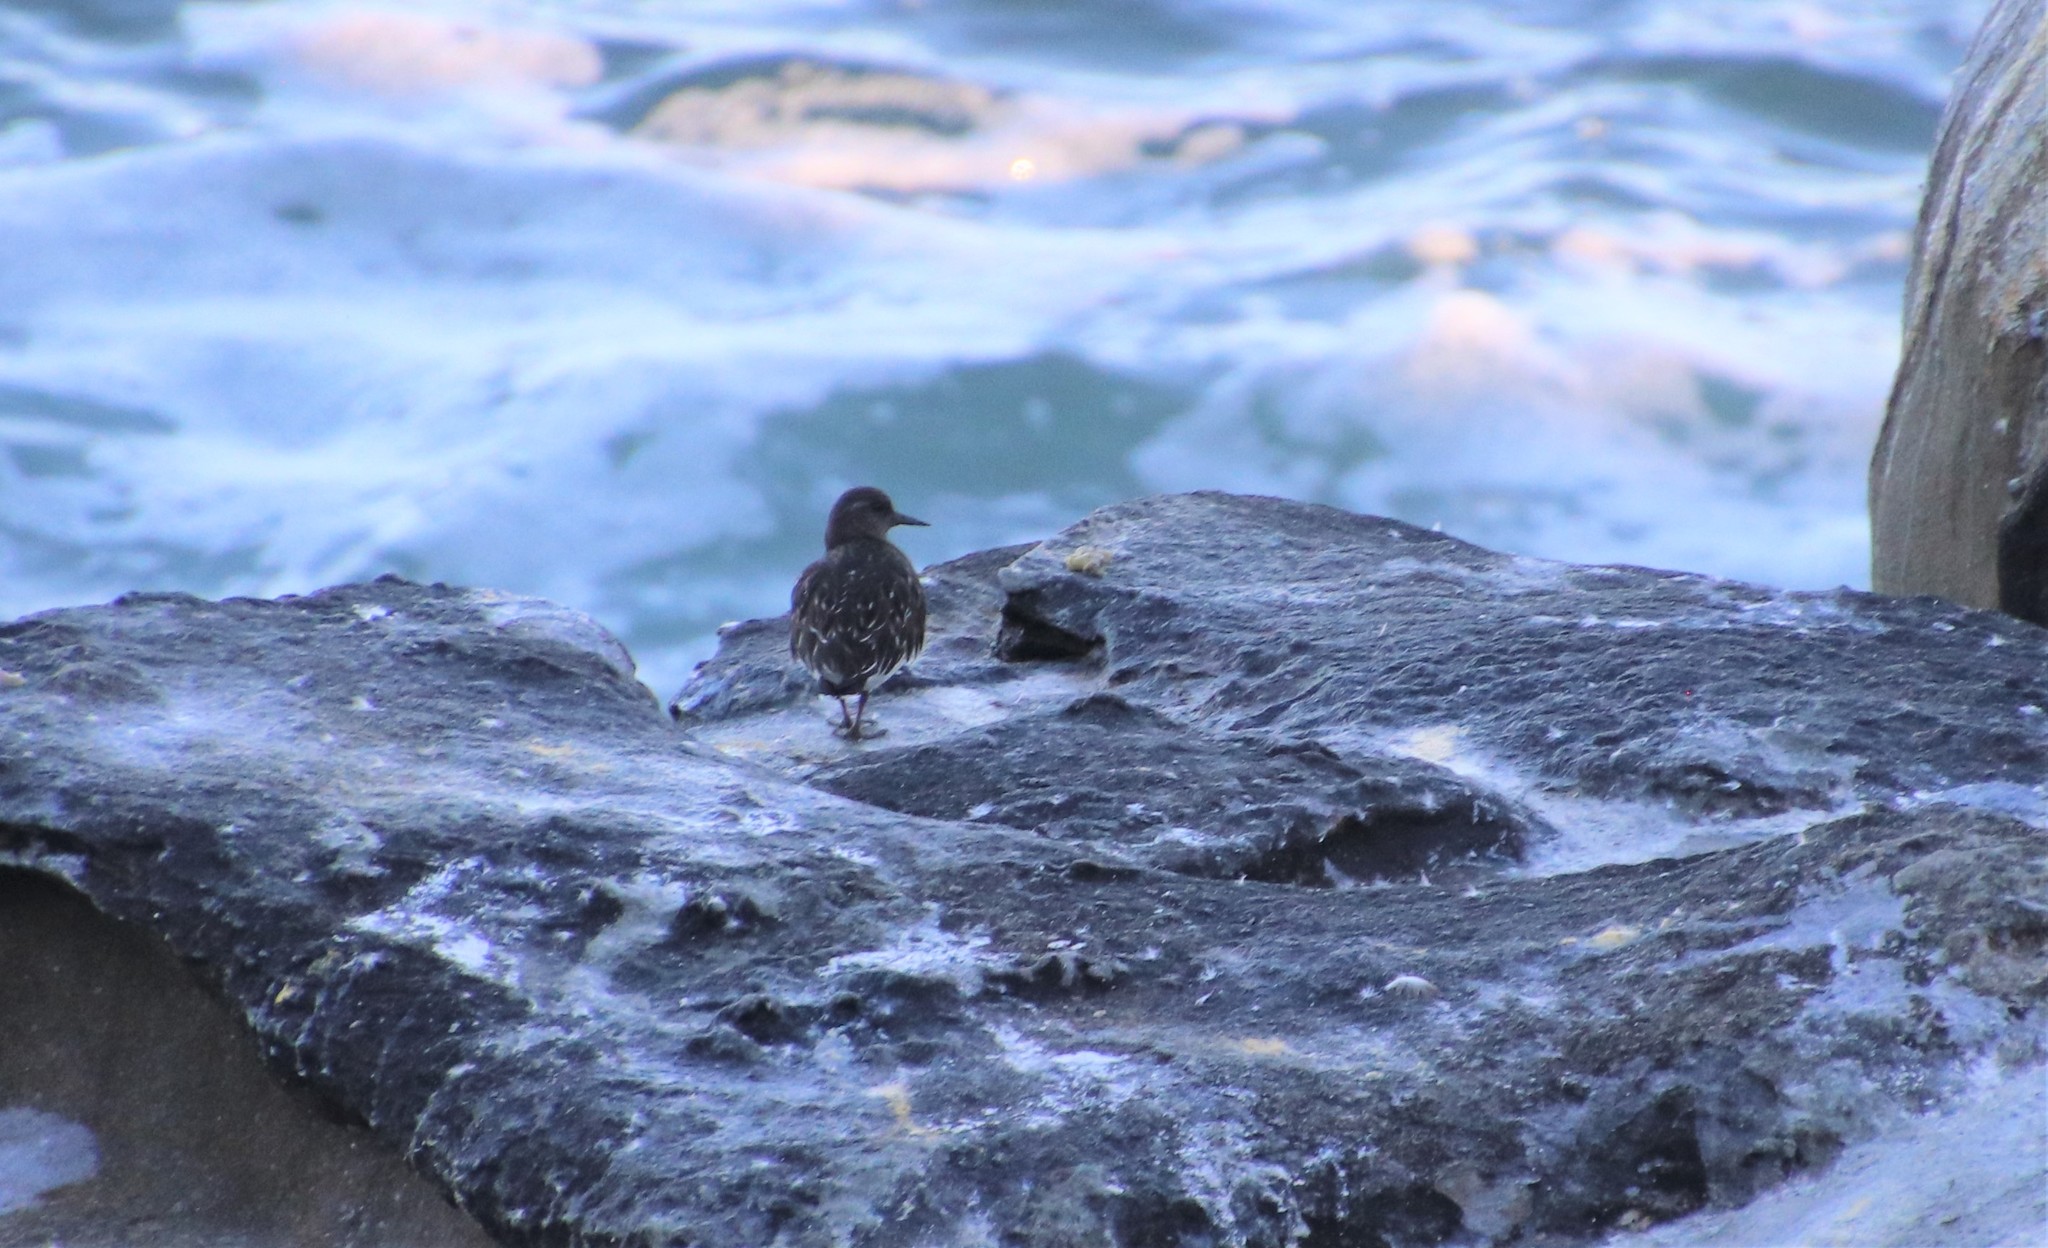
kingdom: Animalia
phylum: Chordata
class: Aves
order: Charadriiformes
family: Scolopacidae
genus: Arenaria
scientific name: Arenaria melanocephala
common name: Black turnstone
